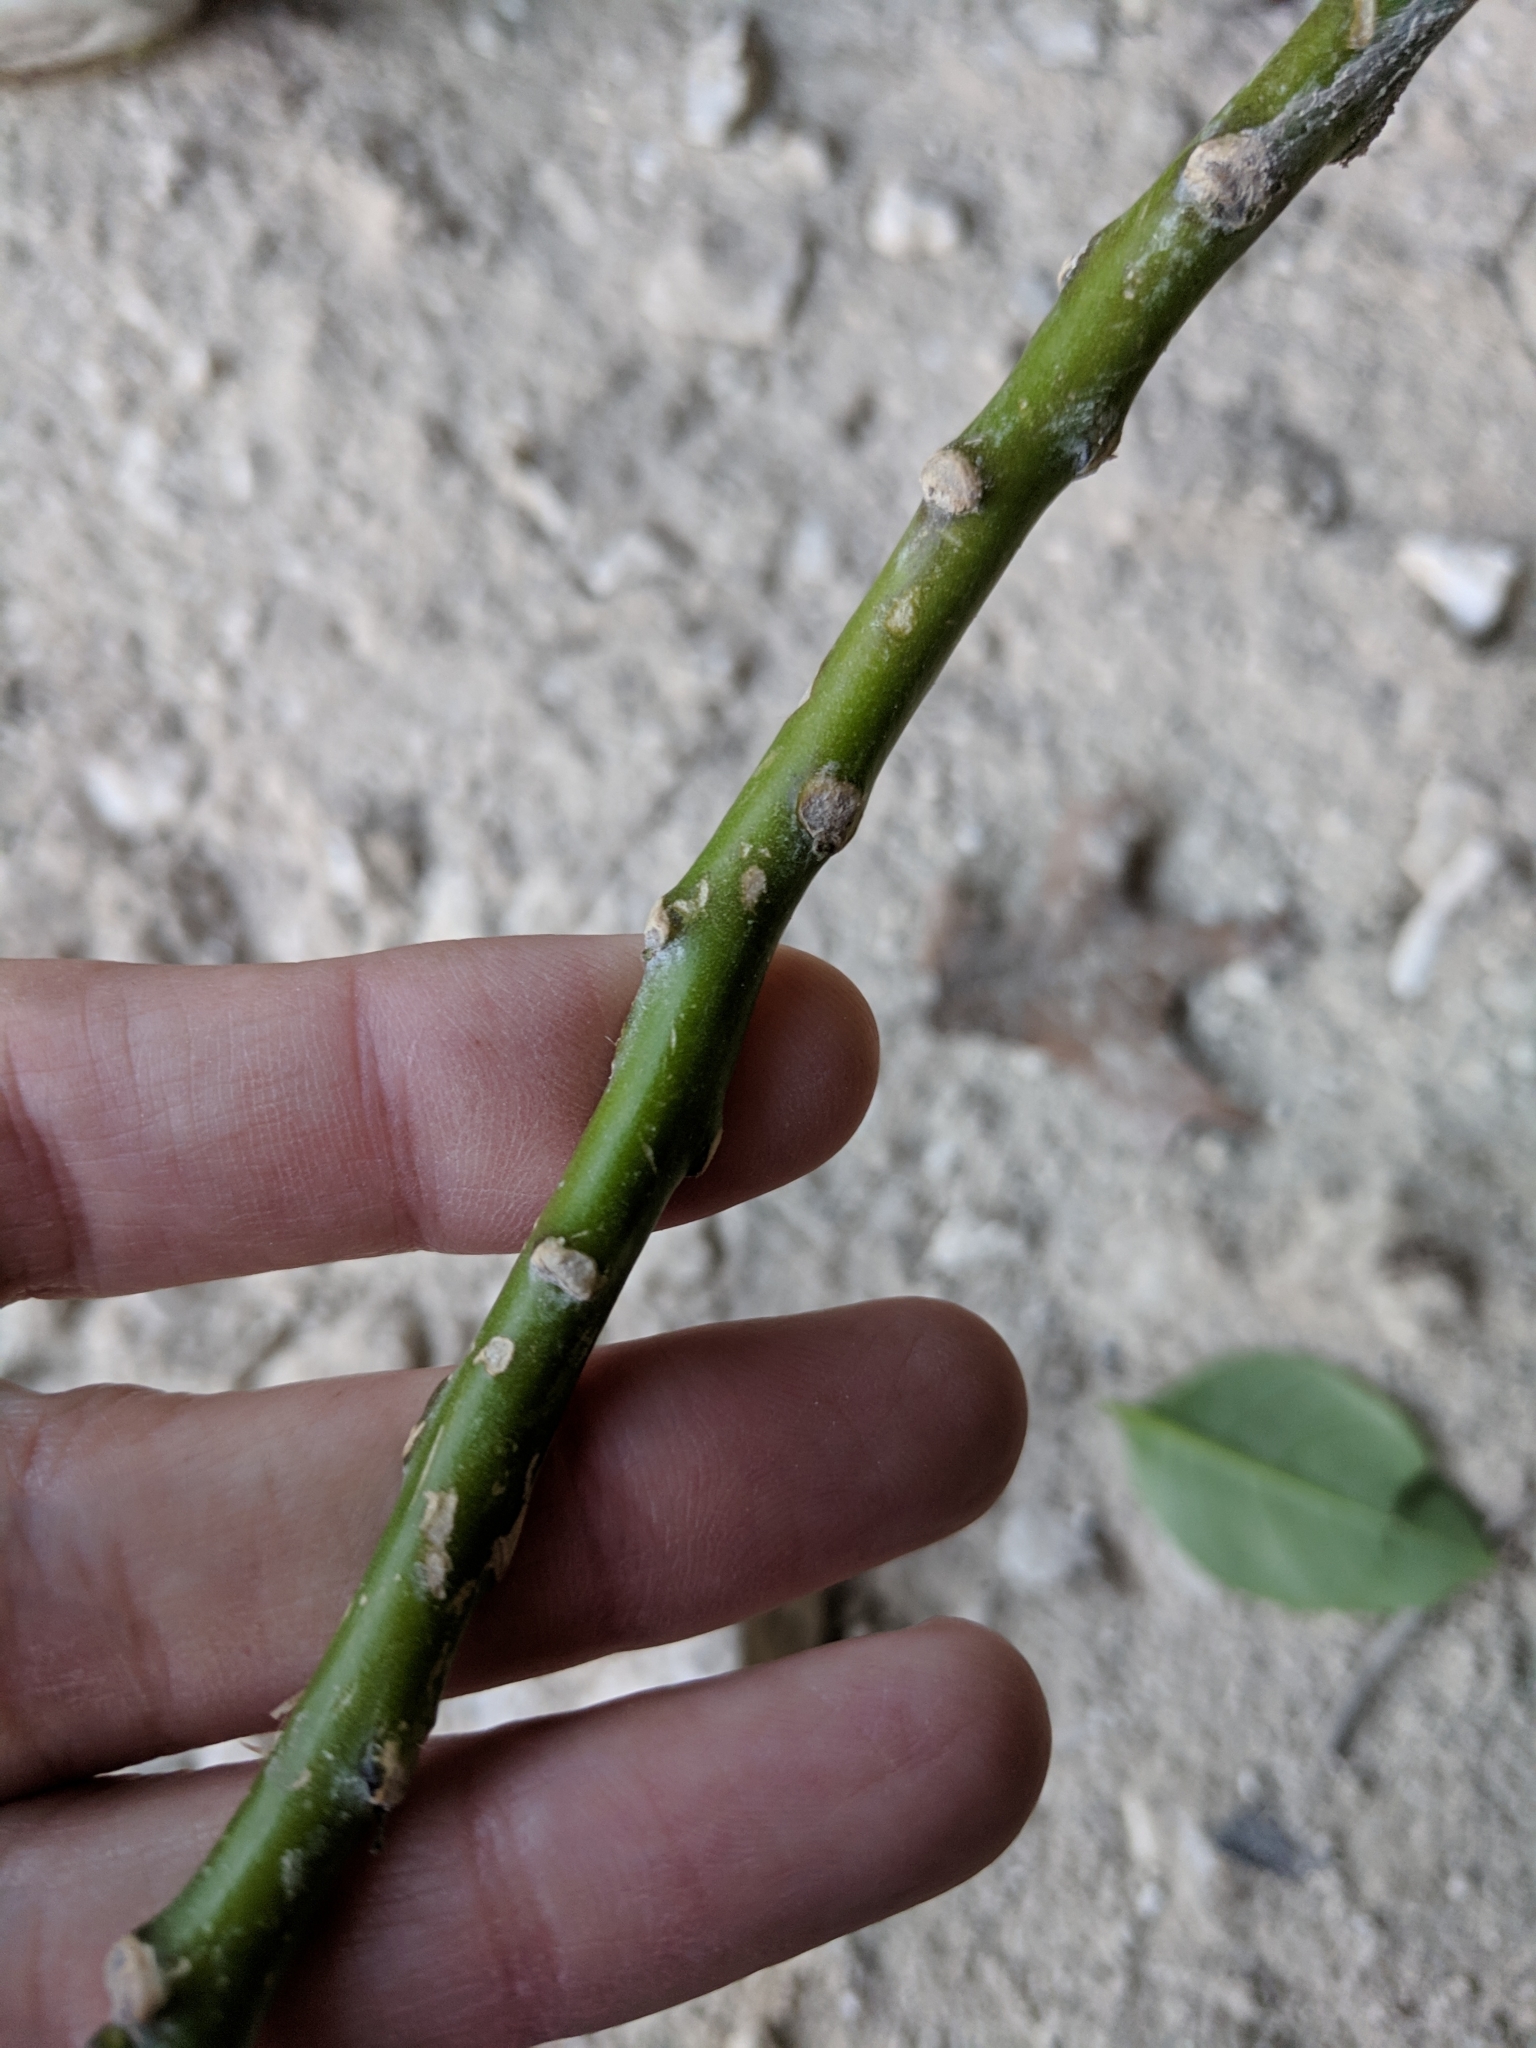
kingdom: Plantae
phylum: Tracheophyta
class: Magnoliopsida
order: Solanales
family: Solanaceae
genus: Nicotiana
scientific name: Nicotiana glauca
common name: Tree tobacco
